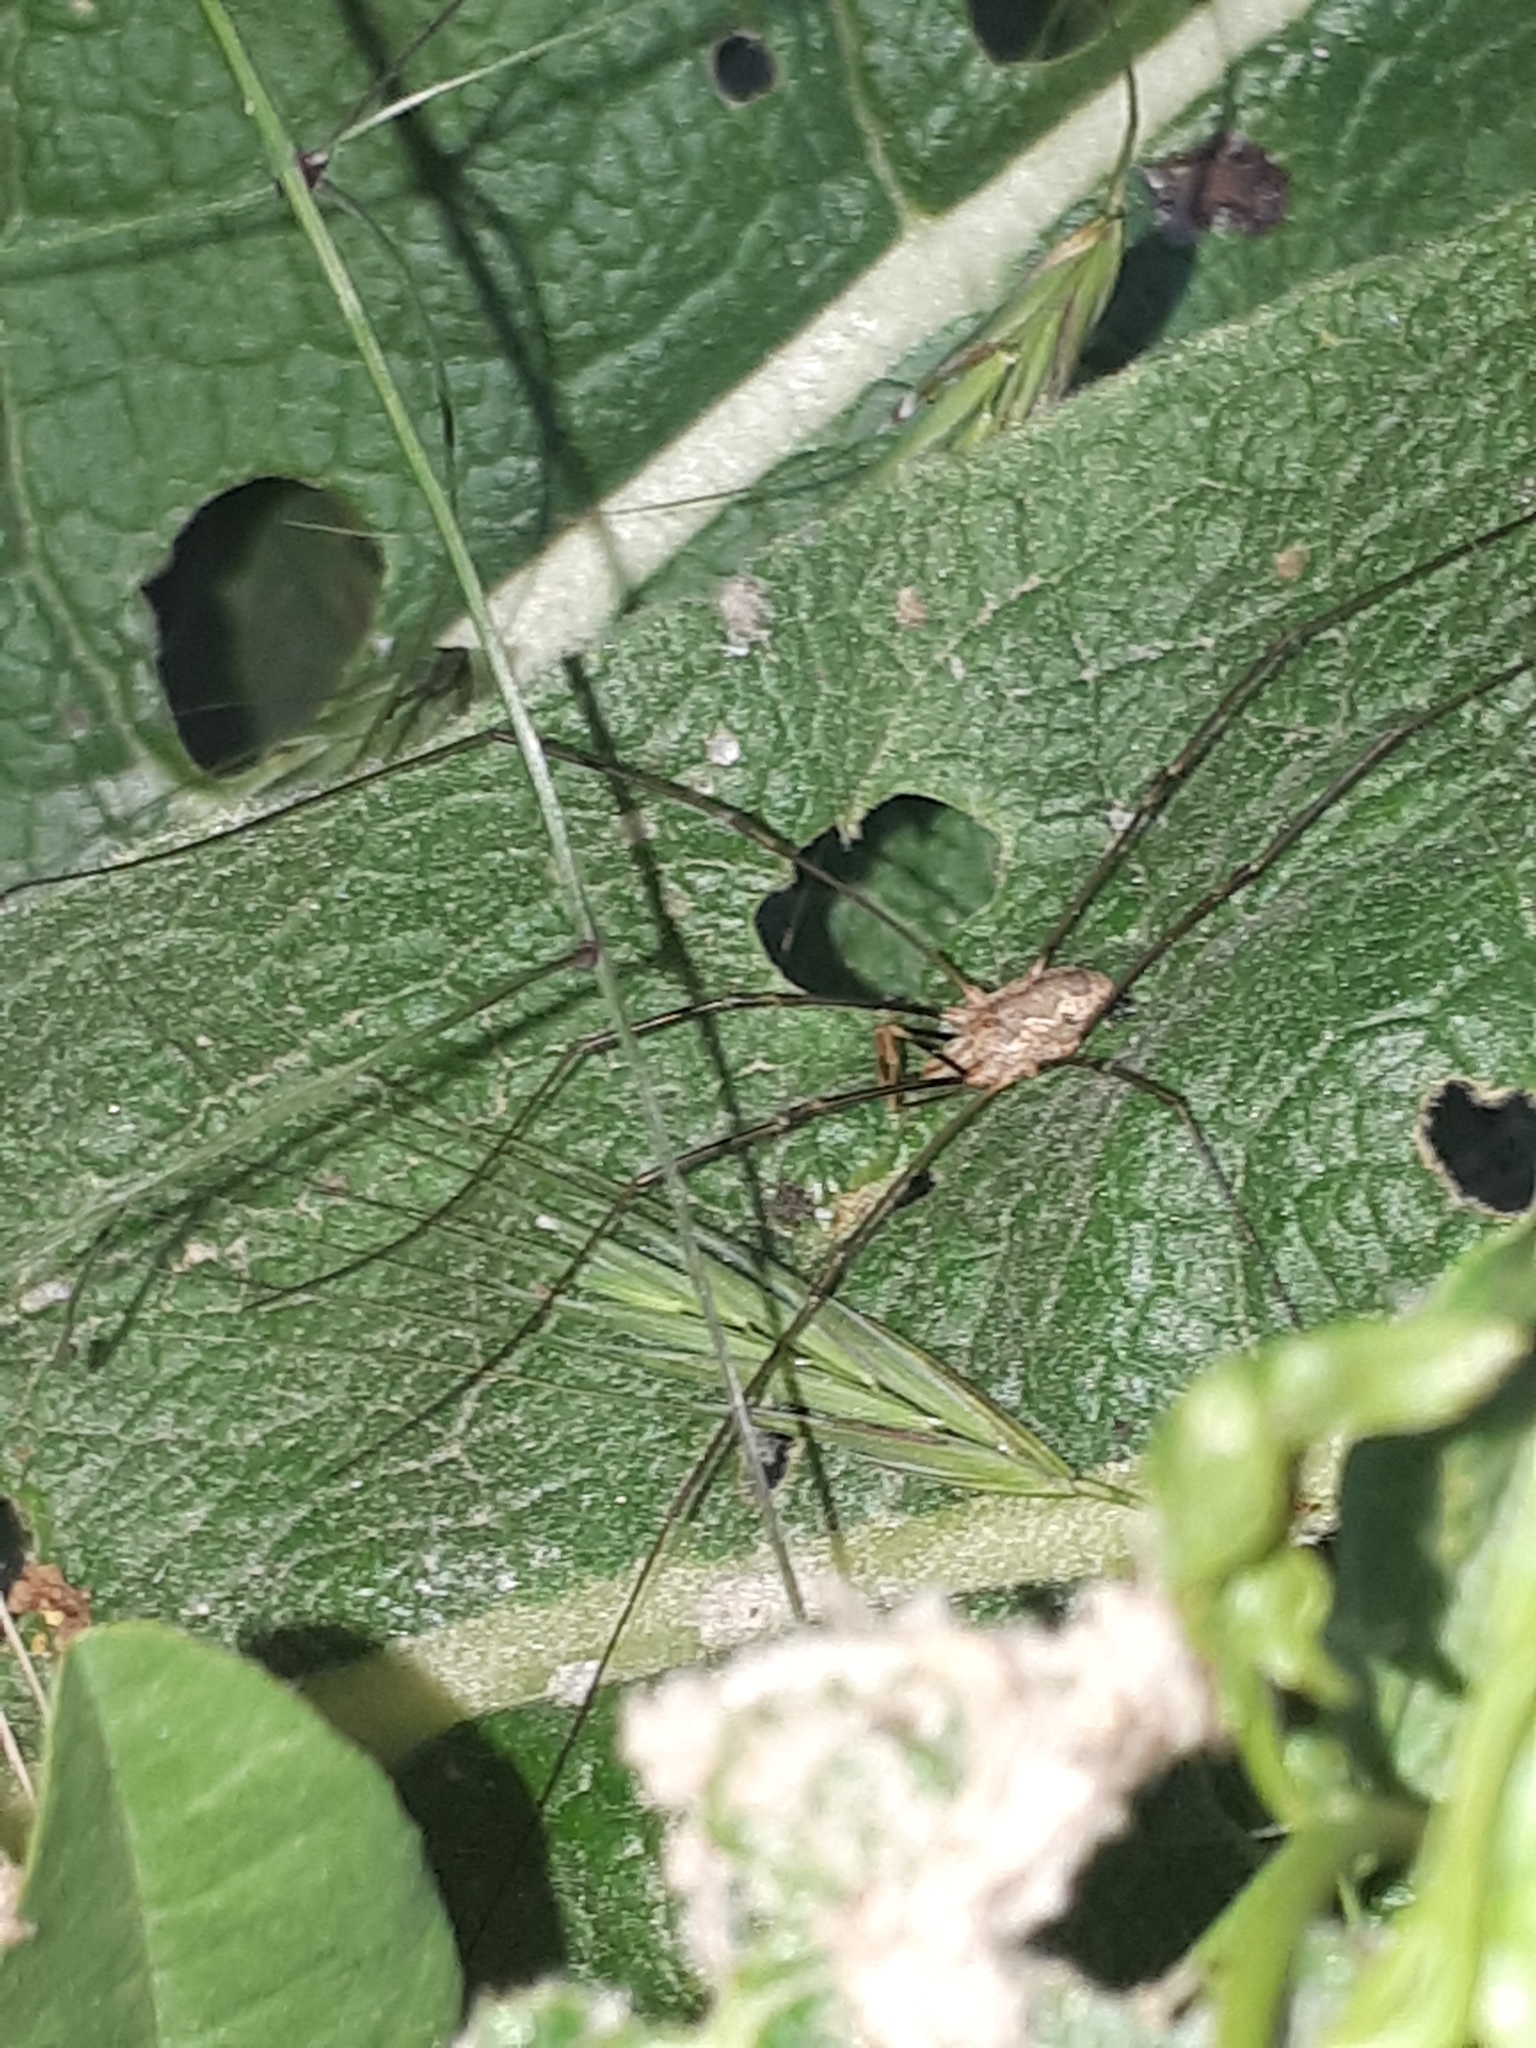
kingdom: Animalia
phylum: Arthropoda
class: Arachnida
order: Opiliones
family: Phalangiidae
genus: Phalangium
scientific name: Phalangium opilio
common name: Daddy longleg
